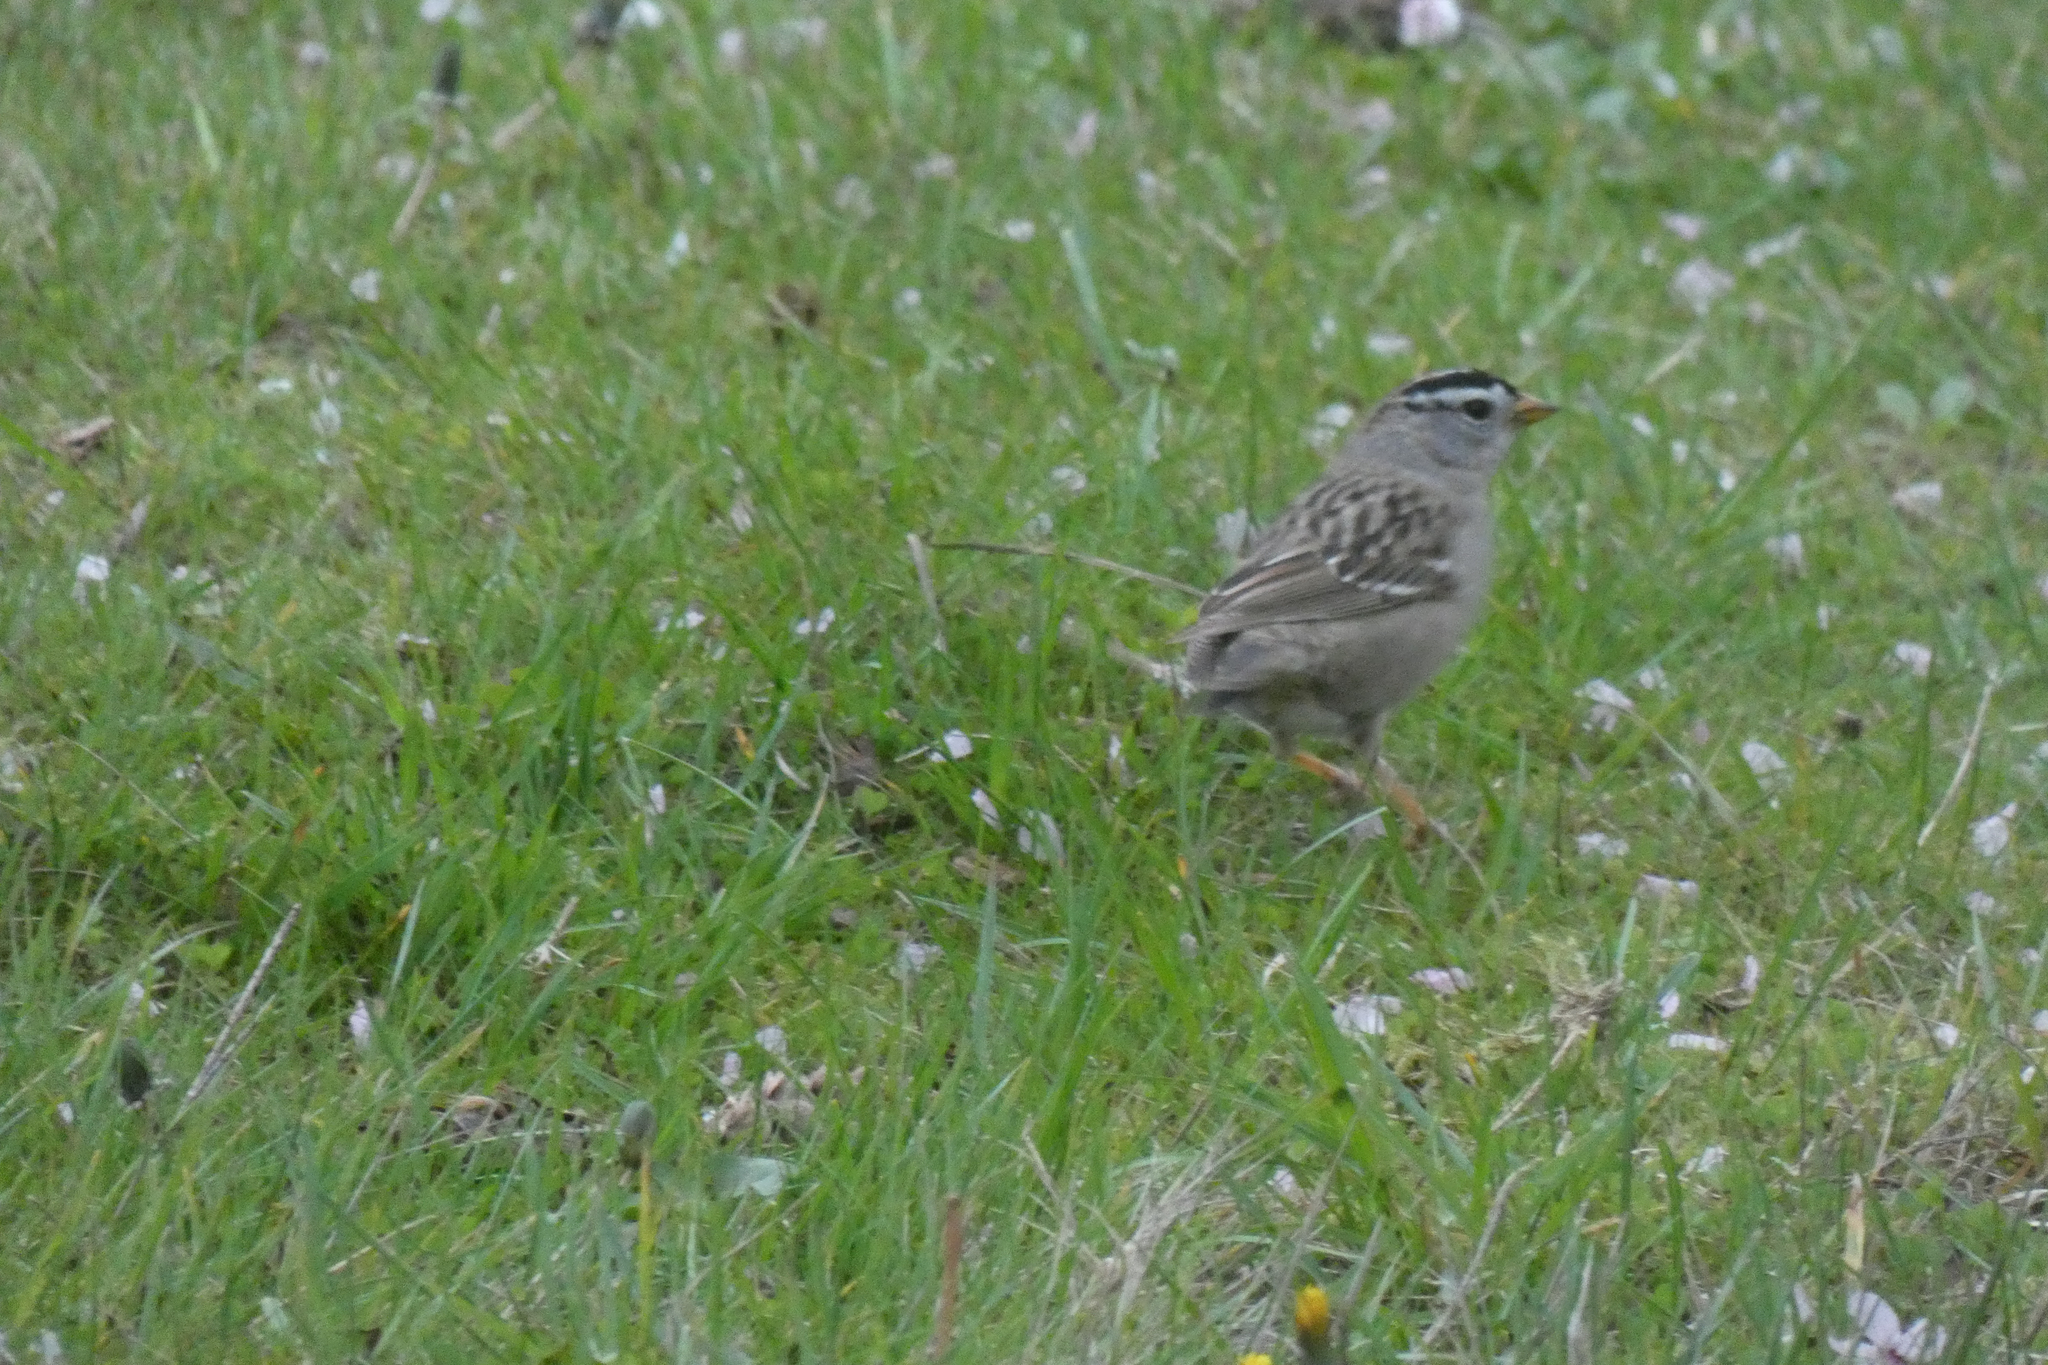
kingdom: Animalia
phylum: Chordata
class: Aves
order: Passeriformes
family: Passerellidae
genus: Zonotrichia
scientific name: Zonotrichia leucophrys
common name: White-crowned sparrow
